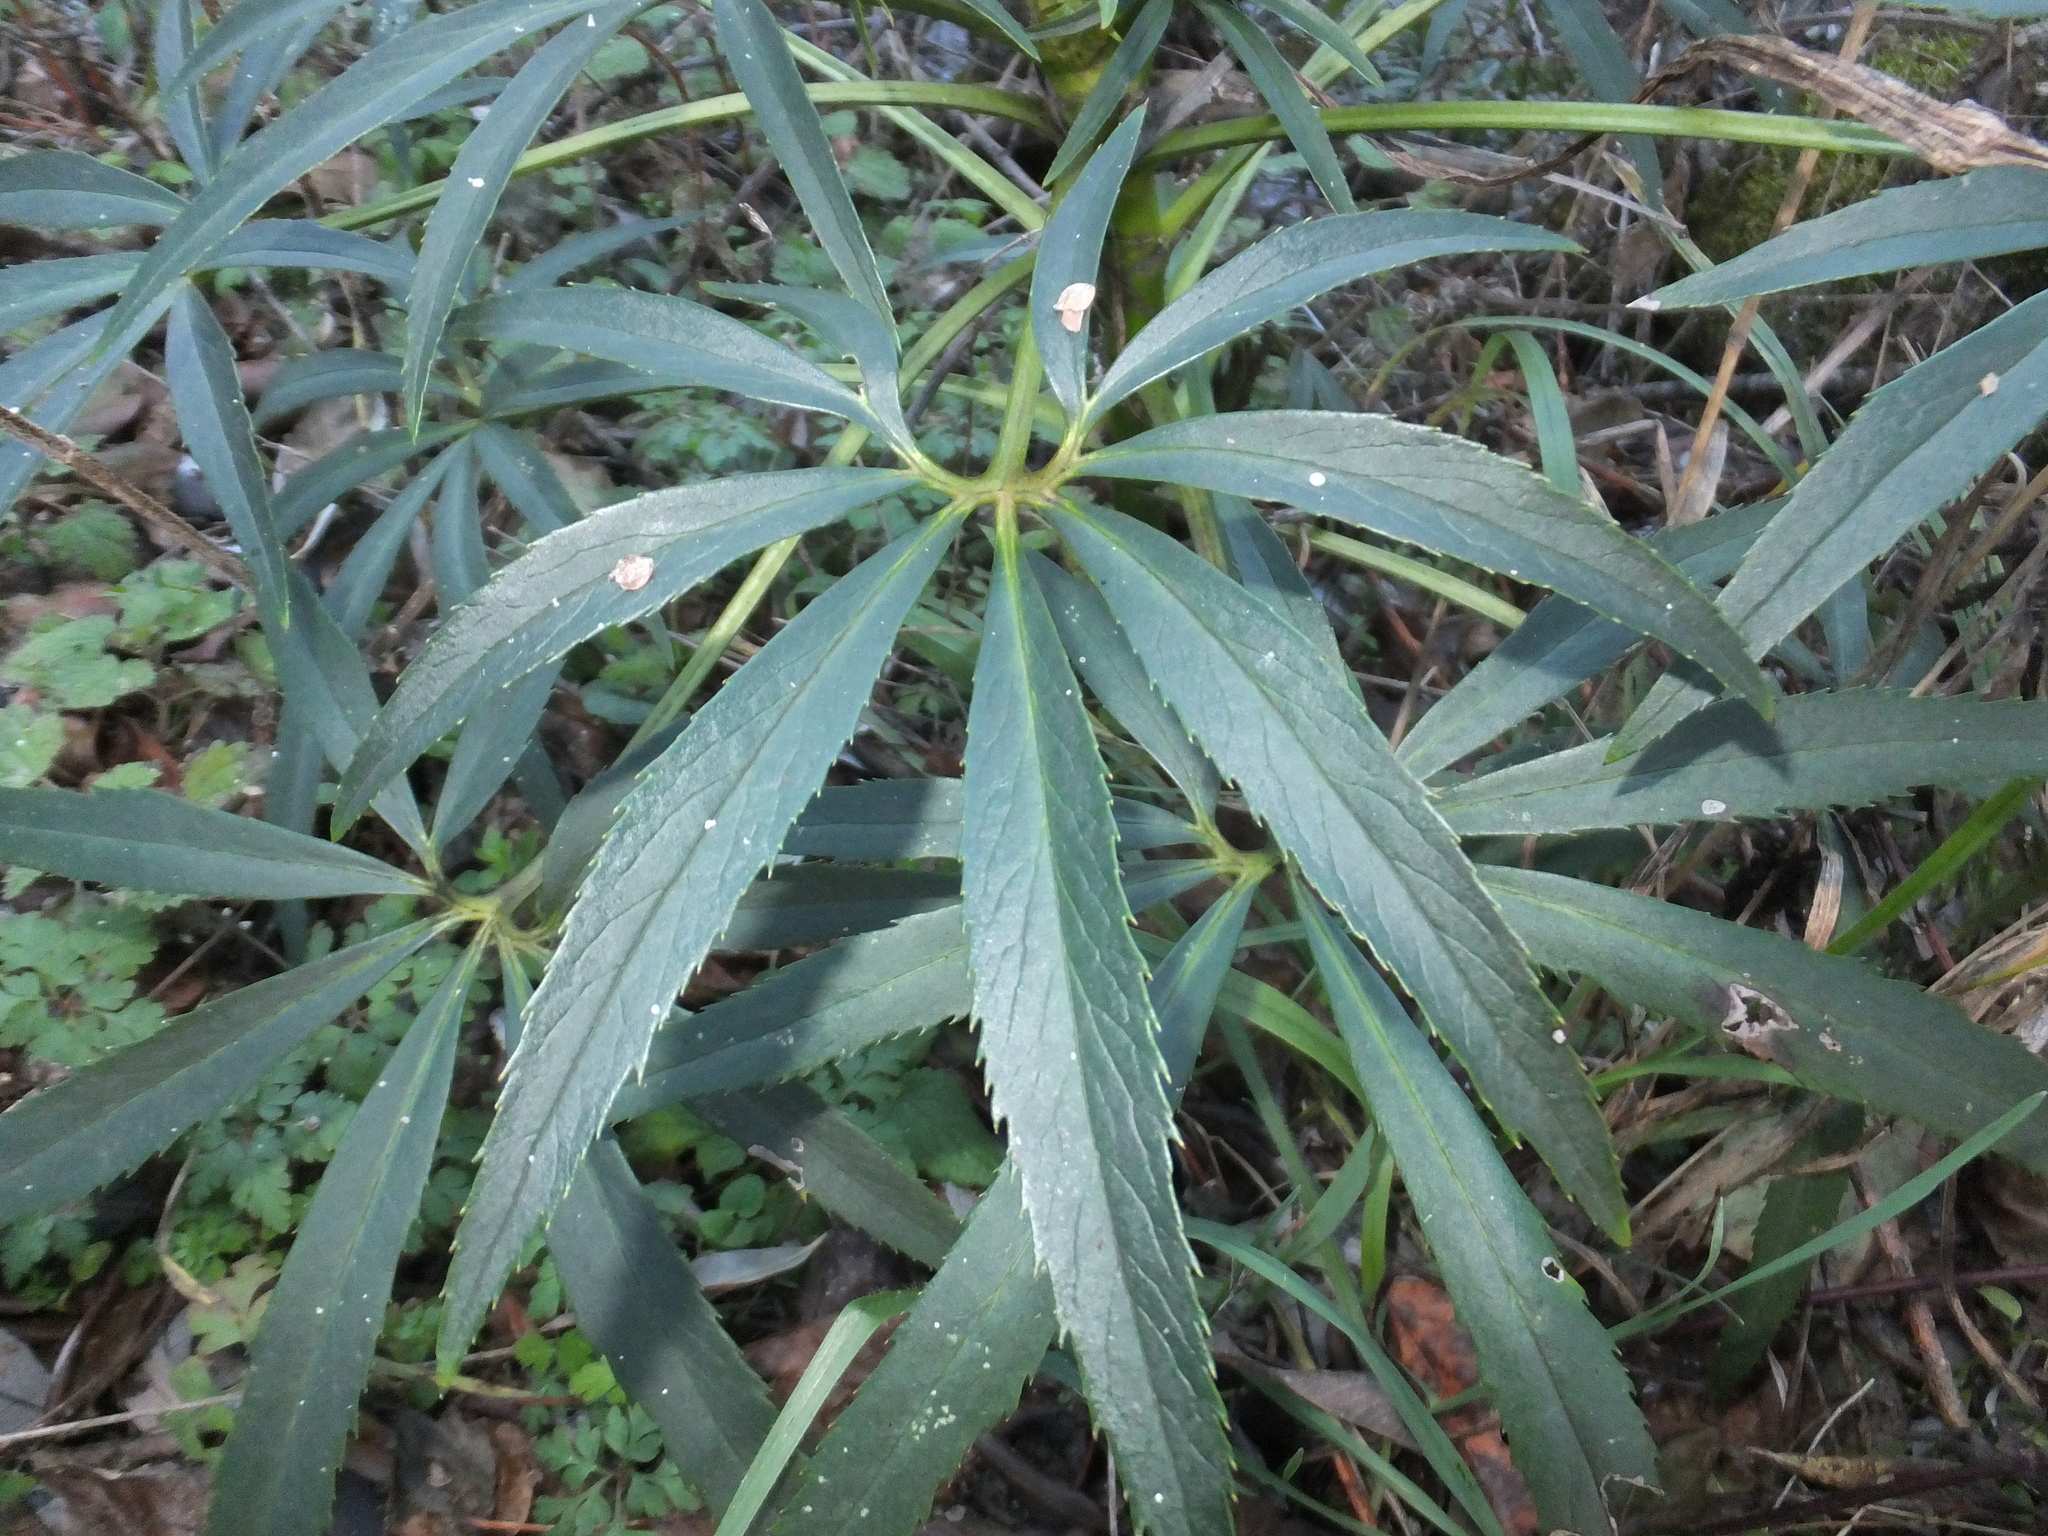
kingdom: Plantae
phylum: Tracheophyta
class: Magnoliopsida
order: Ranunculales
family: Ranunculaceae
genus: Helleborus
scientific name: Helleborus foetidus
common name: Stinking hellebore
